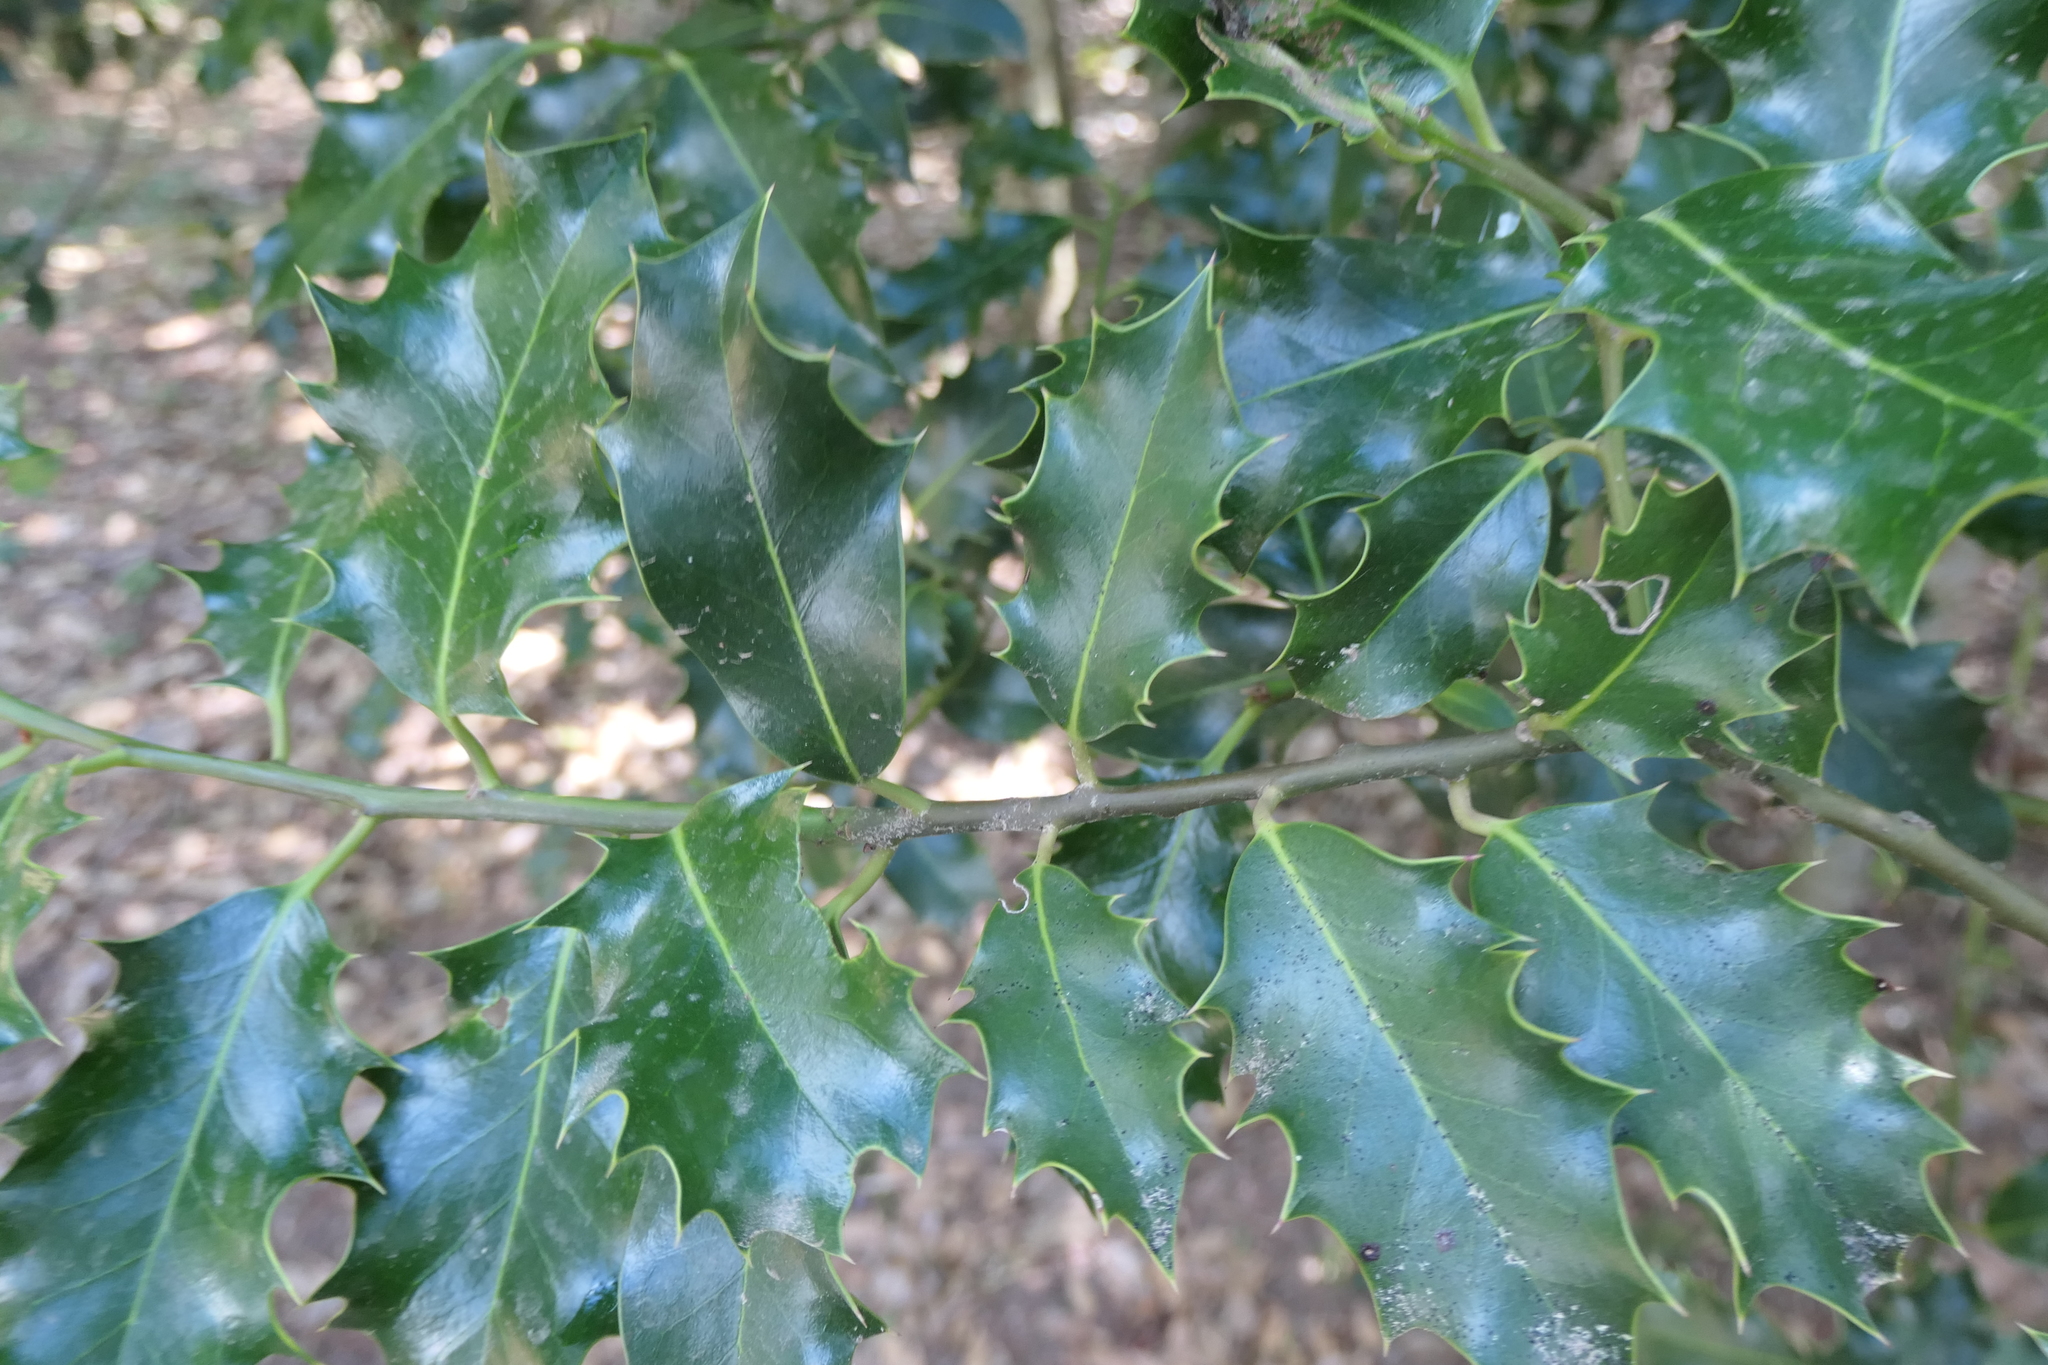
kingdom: Plantae
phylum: Tracheophyta
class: Magnoliopsida
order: Aquifoliales
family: Aquifoliaceae
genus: Ilex
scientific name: Ilex aquifolium
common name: English holly
